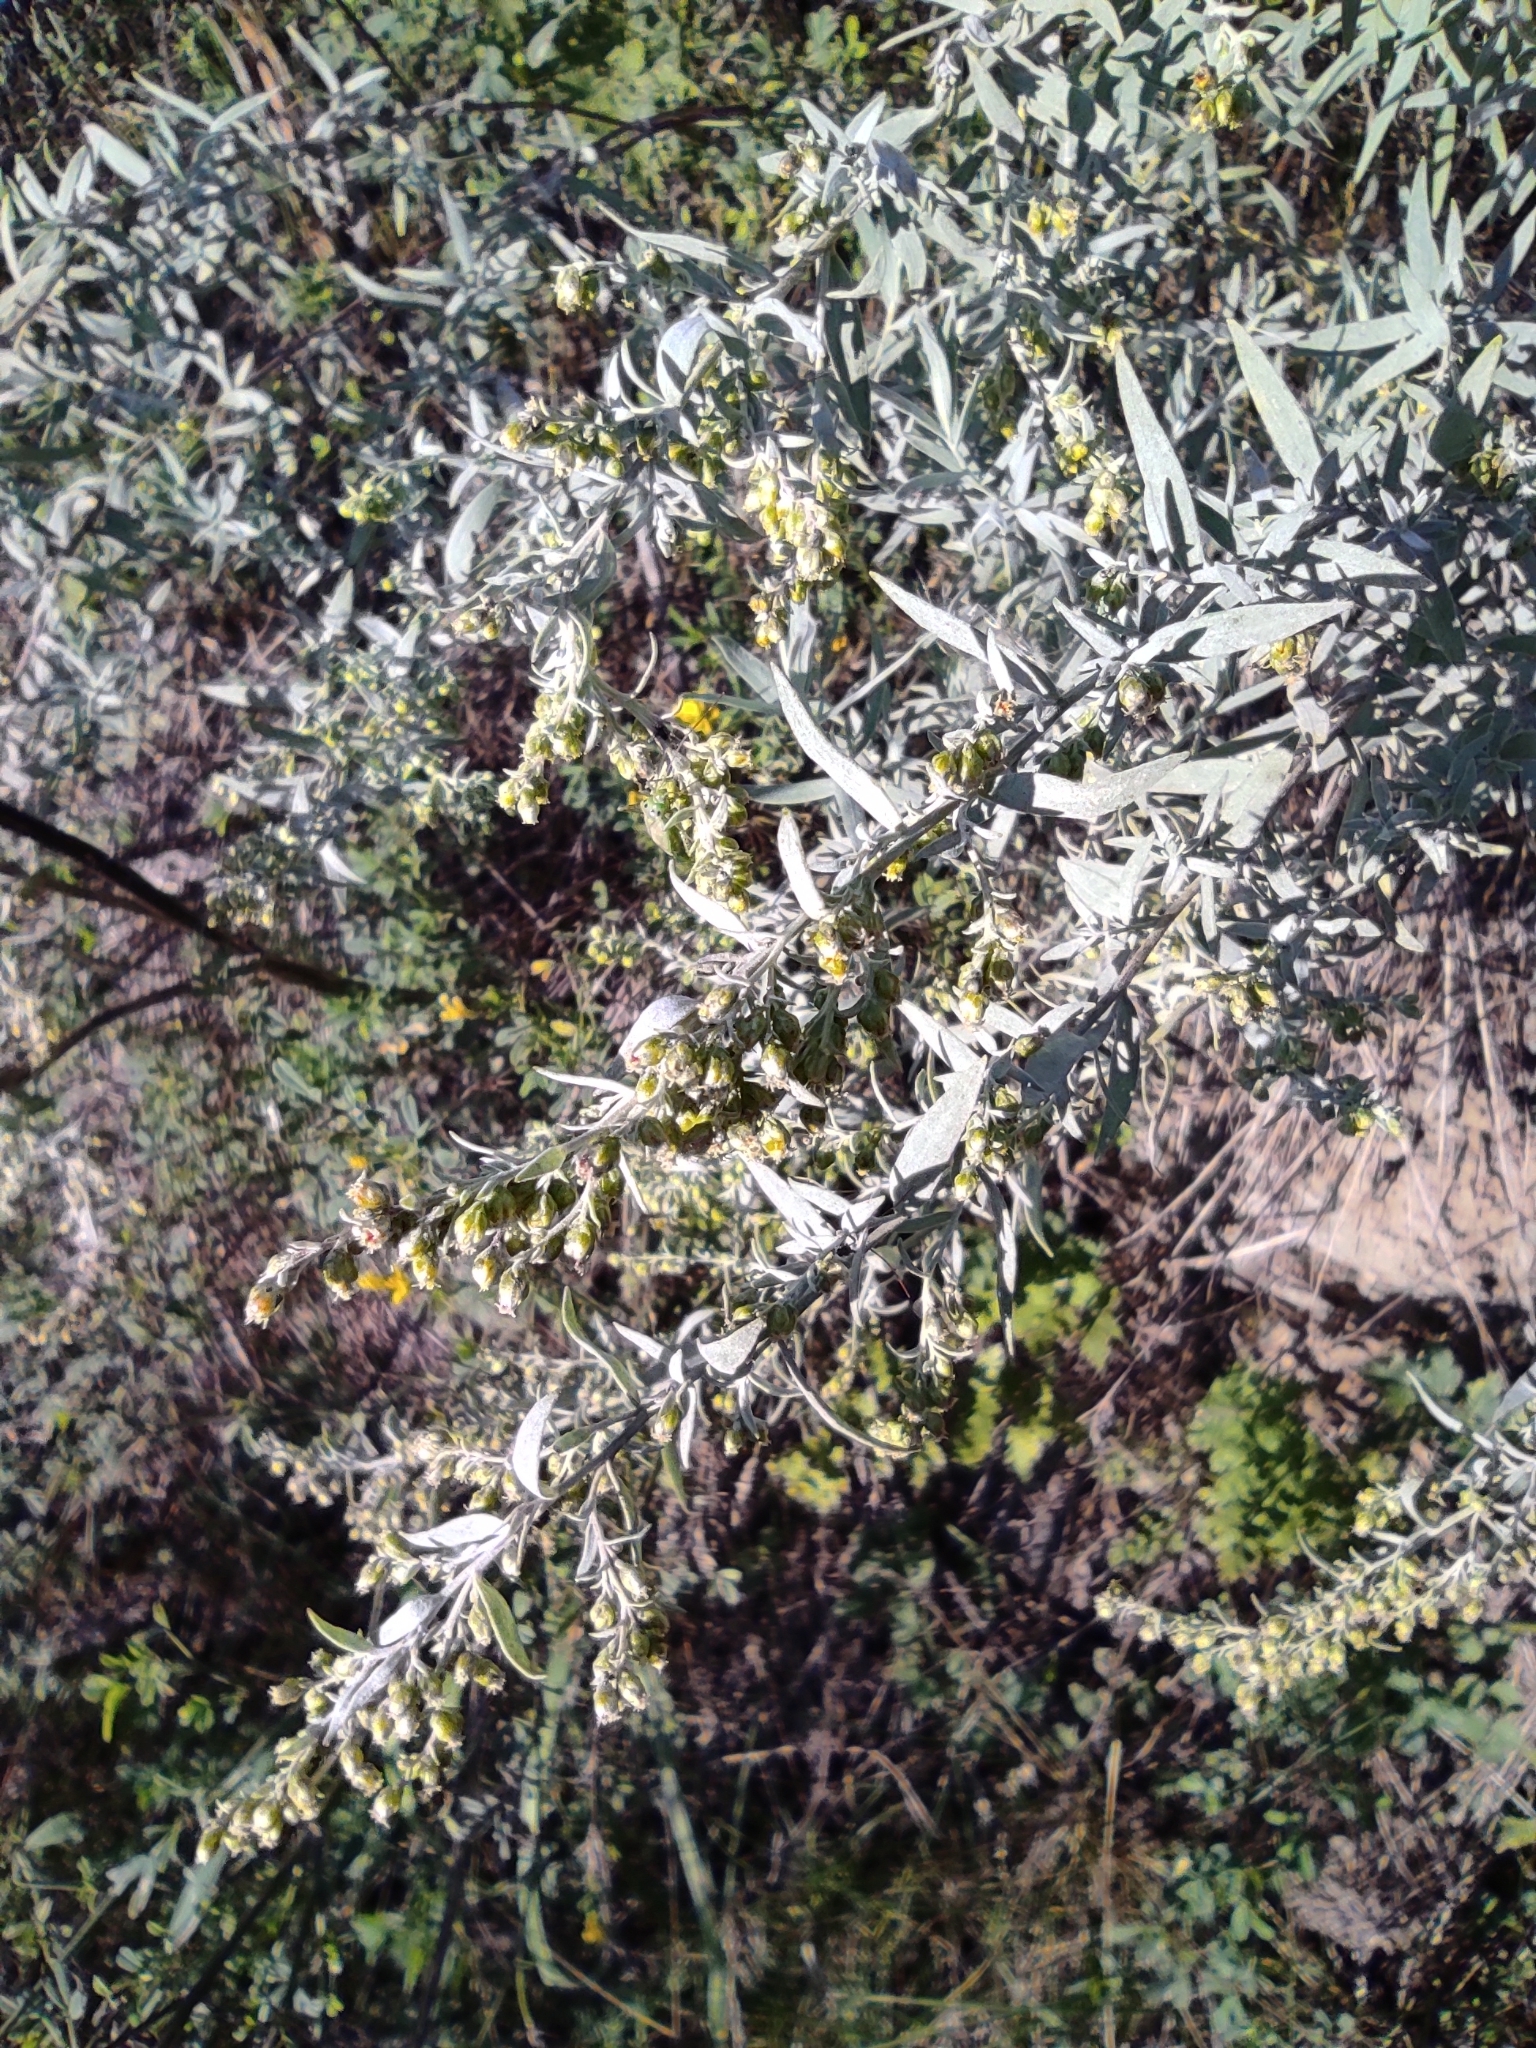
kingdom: Plantae
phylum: Tracheophyta
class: Magnoliopsida
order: Asterales
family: Asteraceae
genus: Artemisia
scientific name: Artemisia glauca
